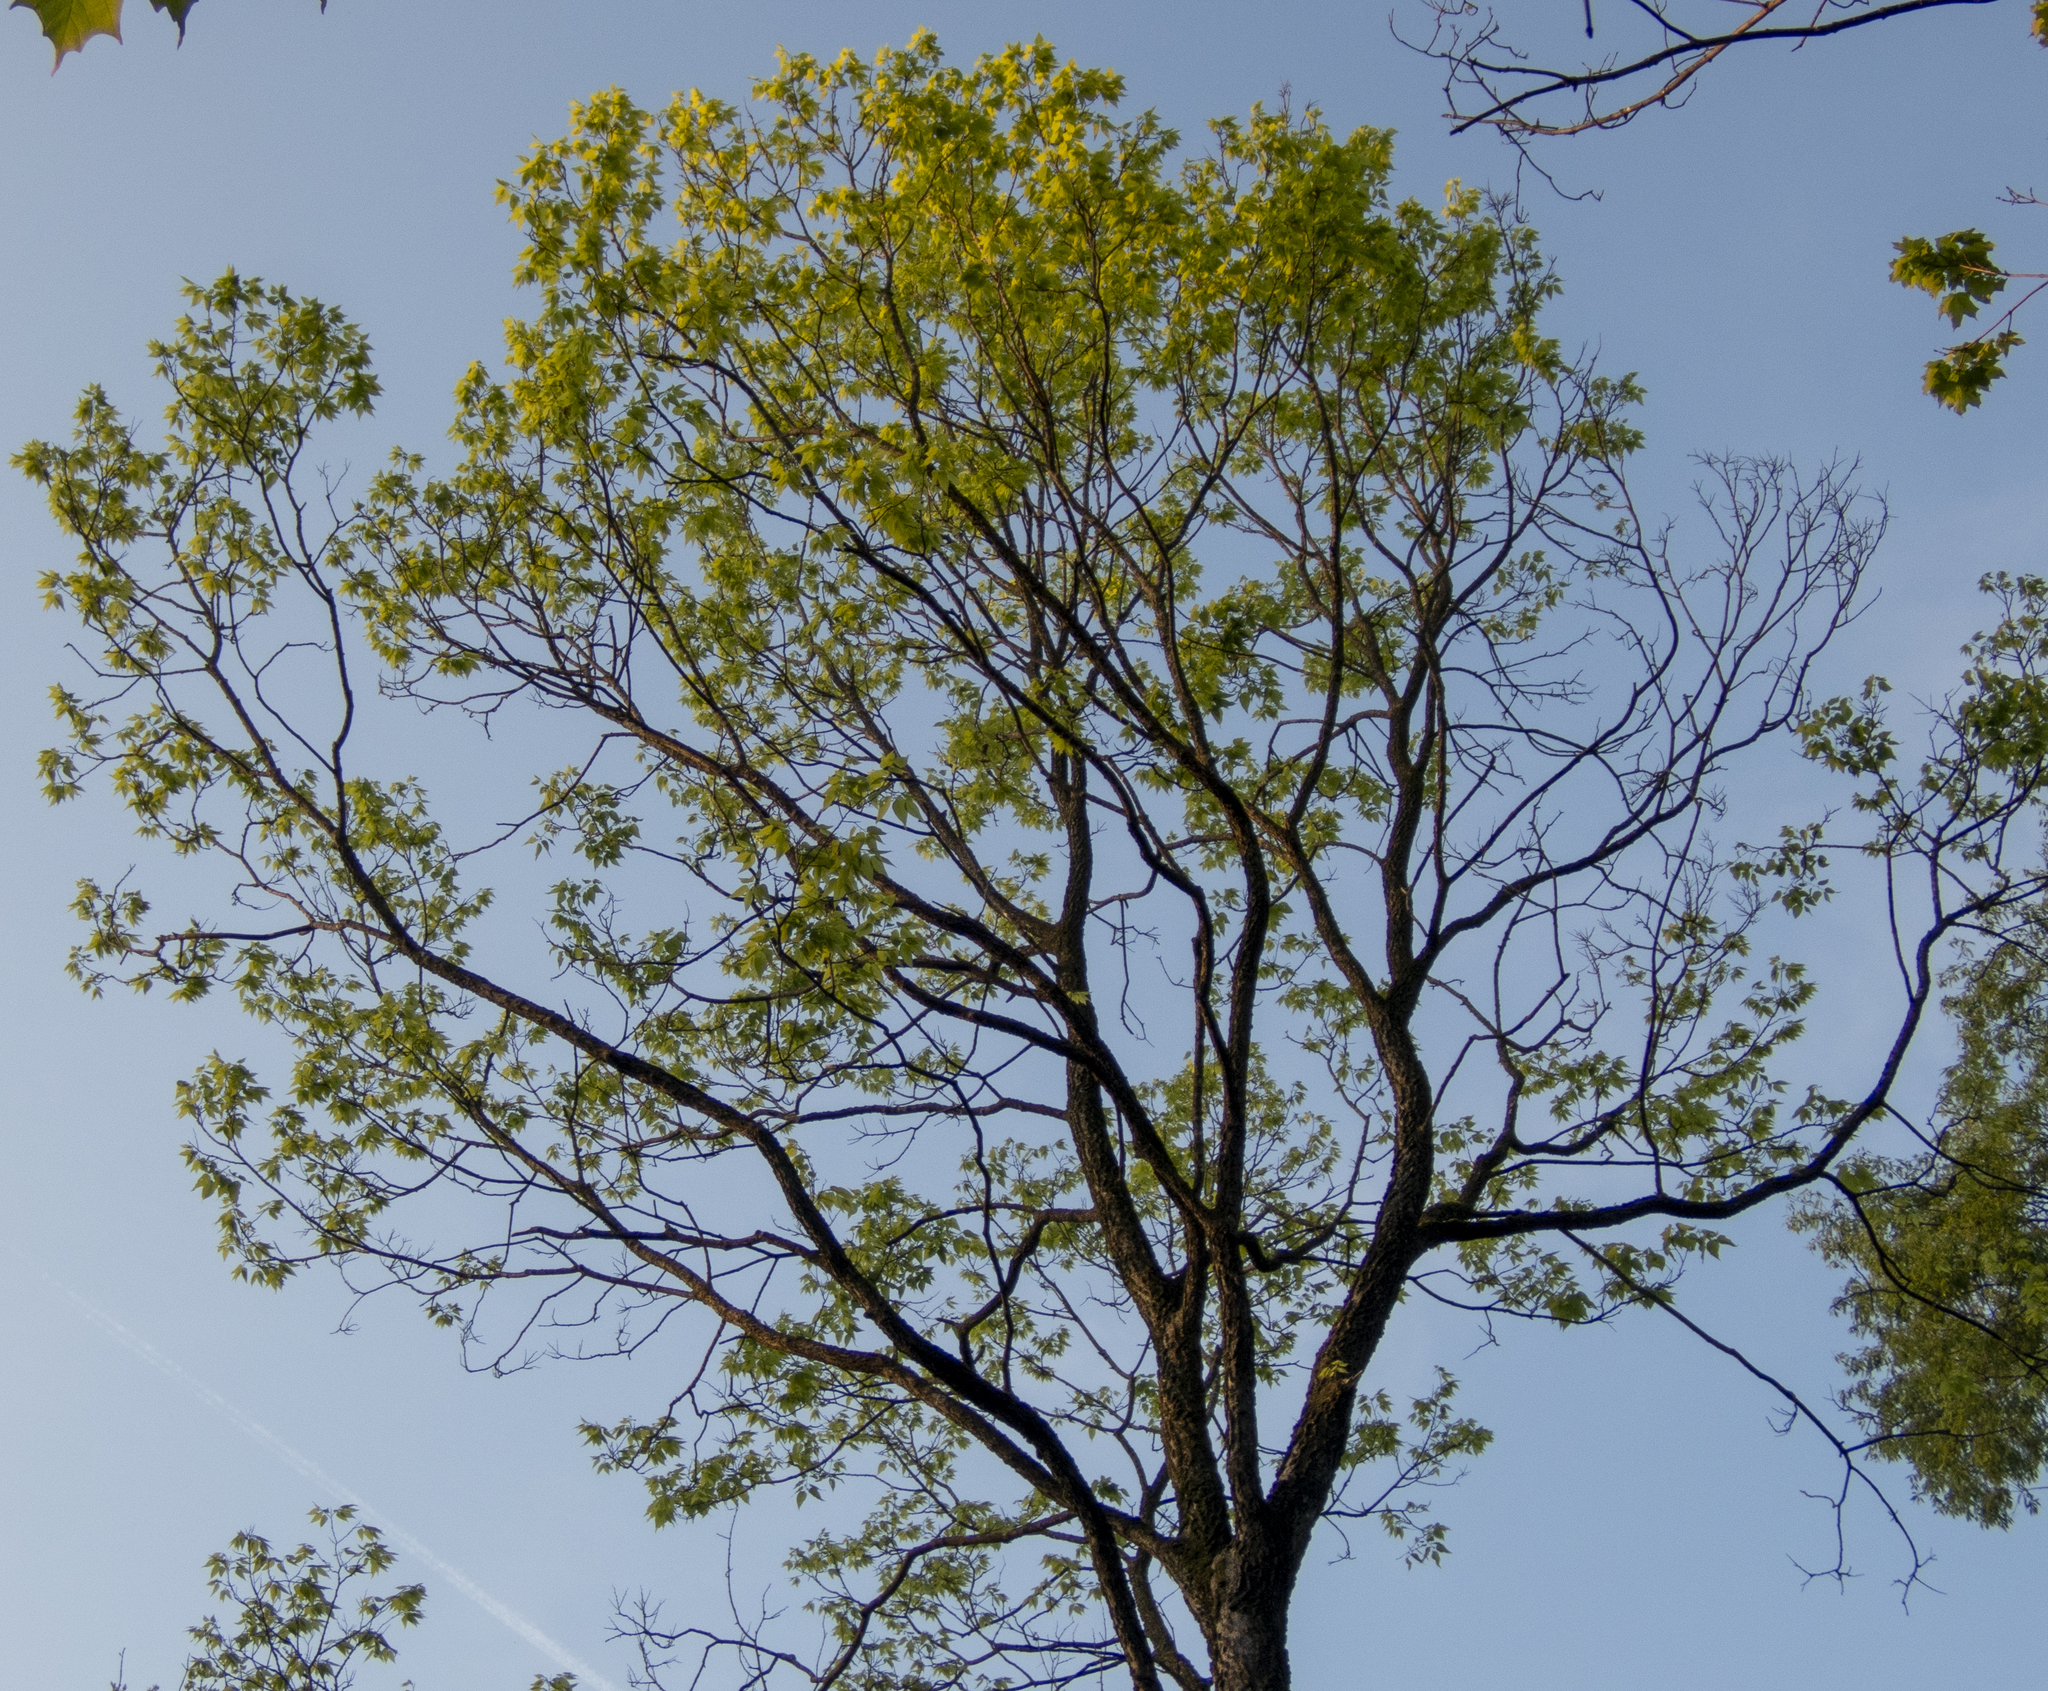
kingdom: Plantae
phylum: Tracheophyta
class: Magnoliopsida
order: Rosales
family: Cannabaceae
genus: Celtis
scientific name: Celtis occidentalis
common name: Common hackberry
